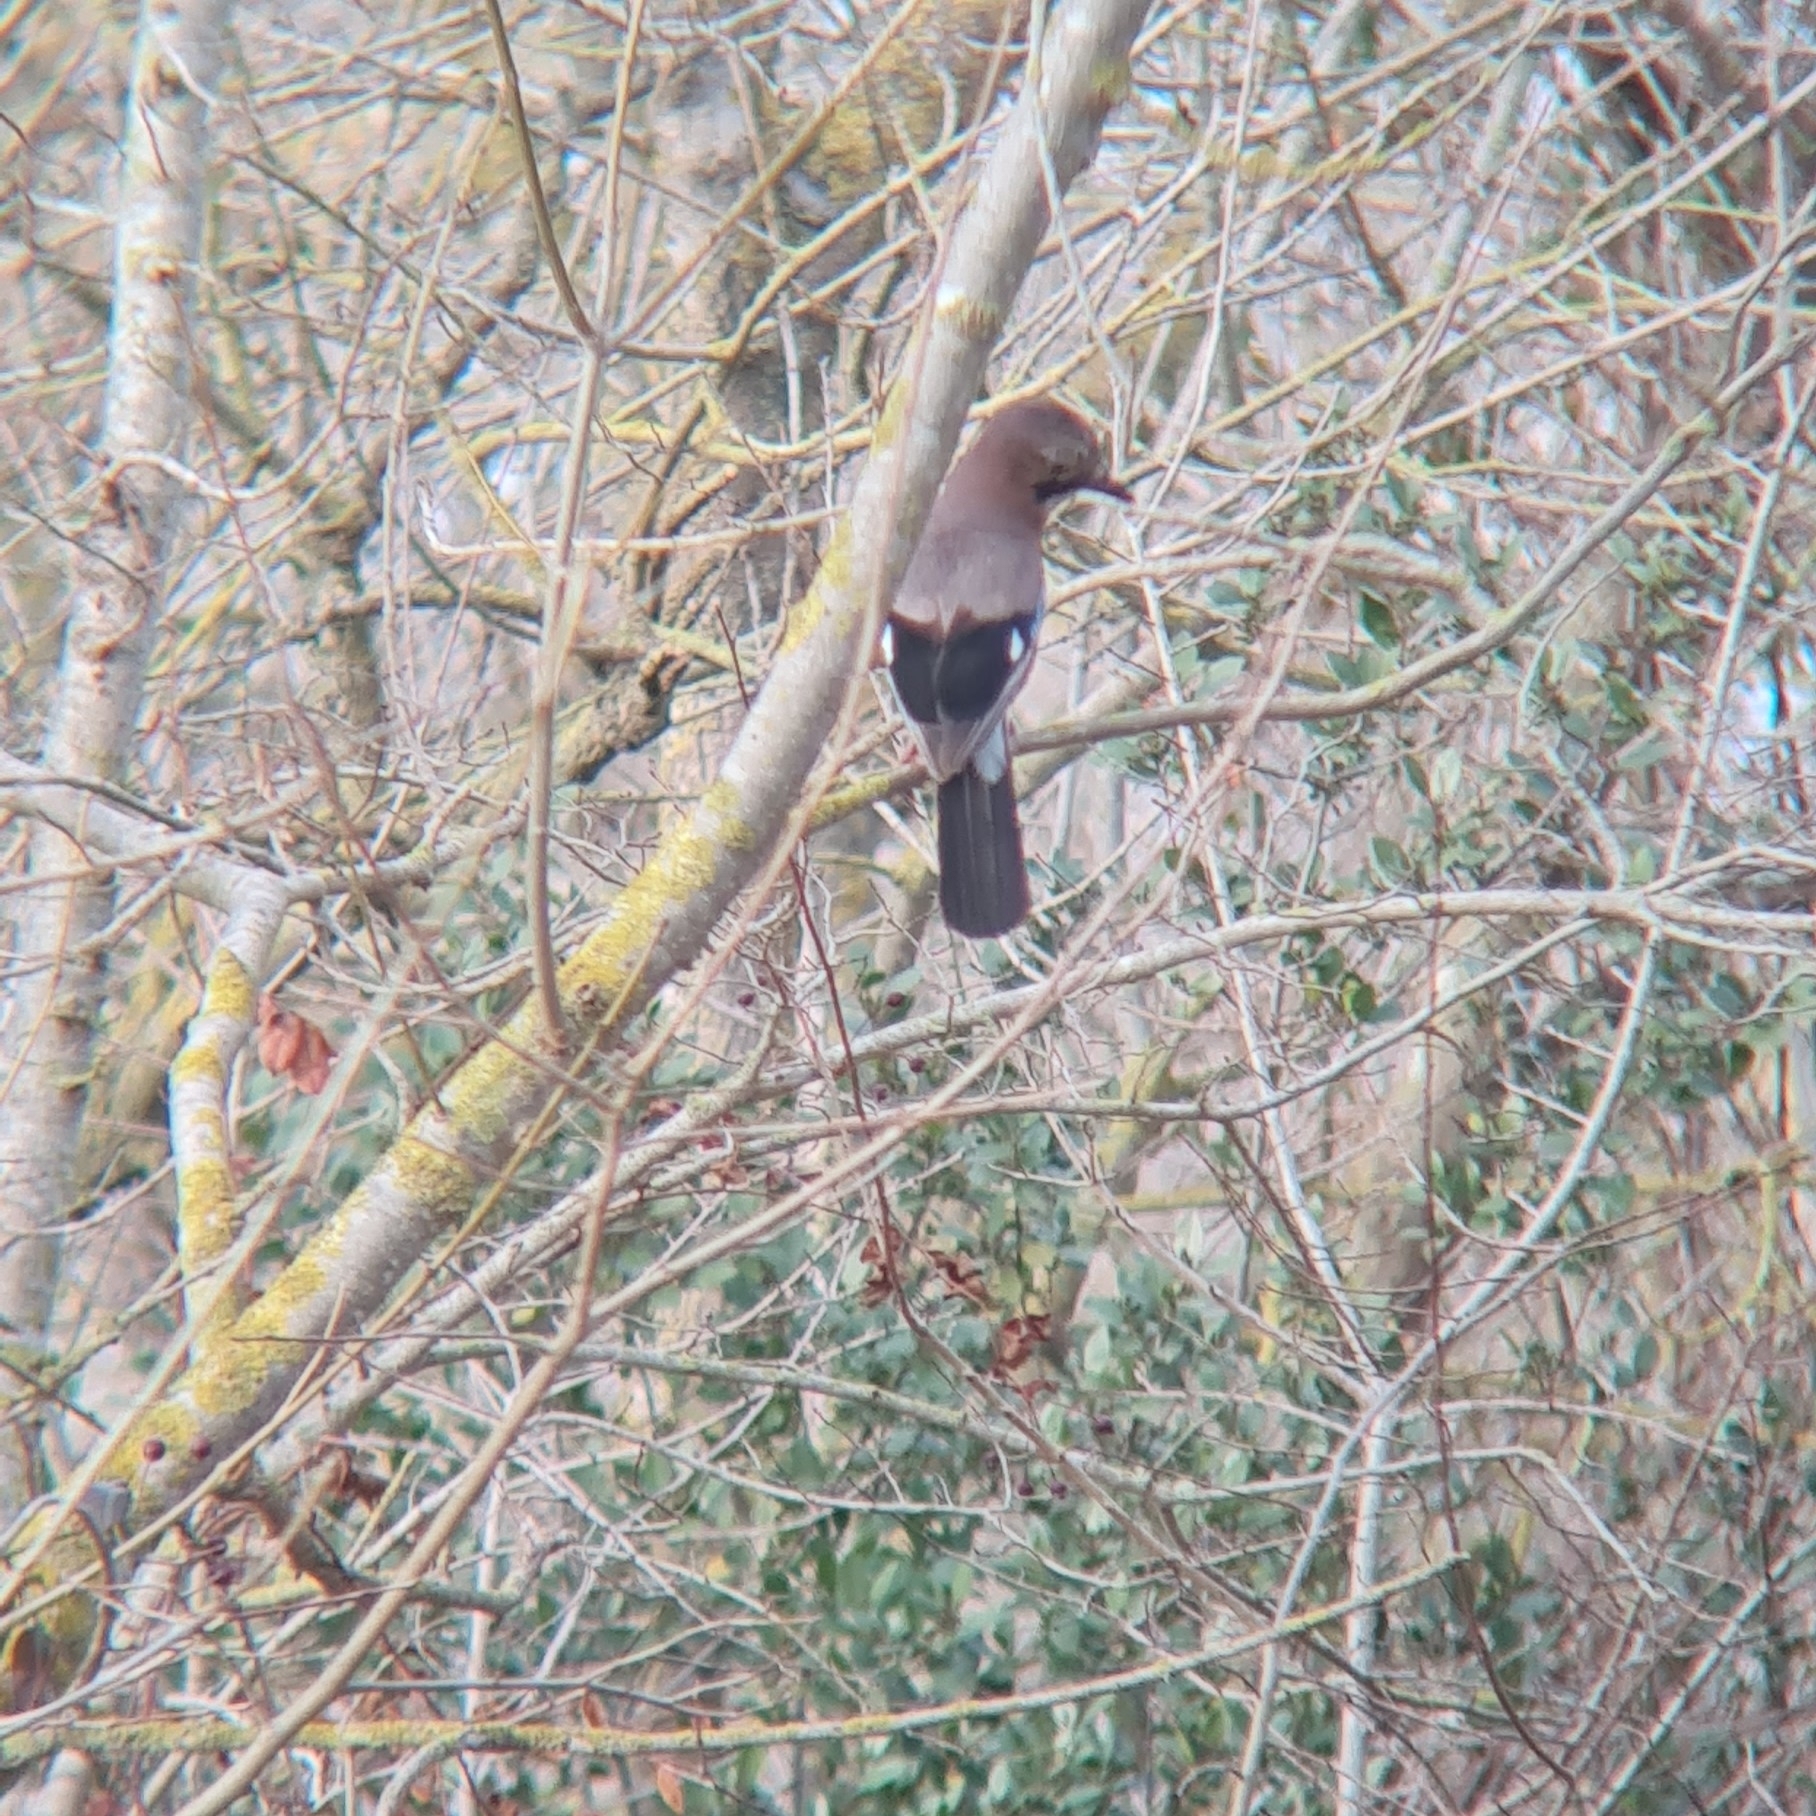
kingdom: Animalia
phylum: Chordata
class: Aves
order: Passeriformes
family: Corvidae
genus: Garrulus
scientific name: Garrulus glandarius
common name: Eurasian jay
